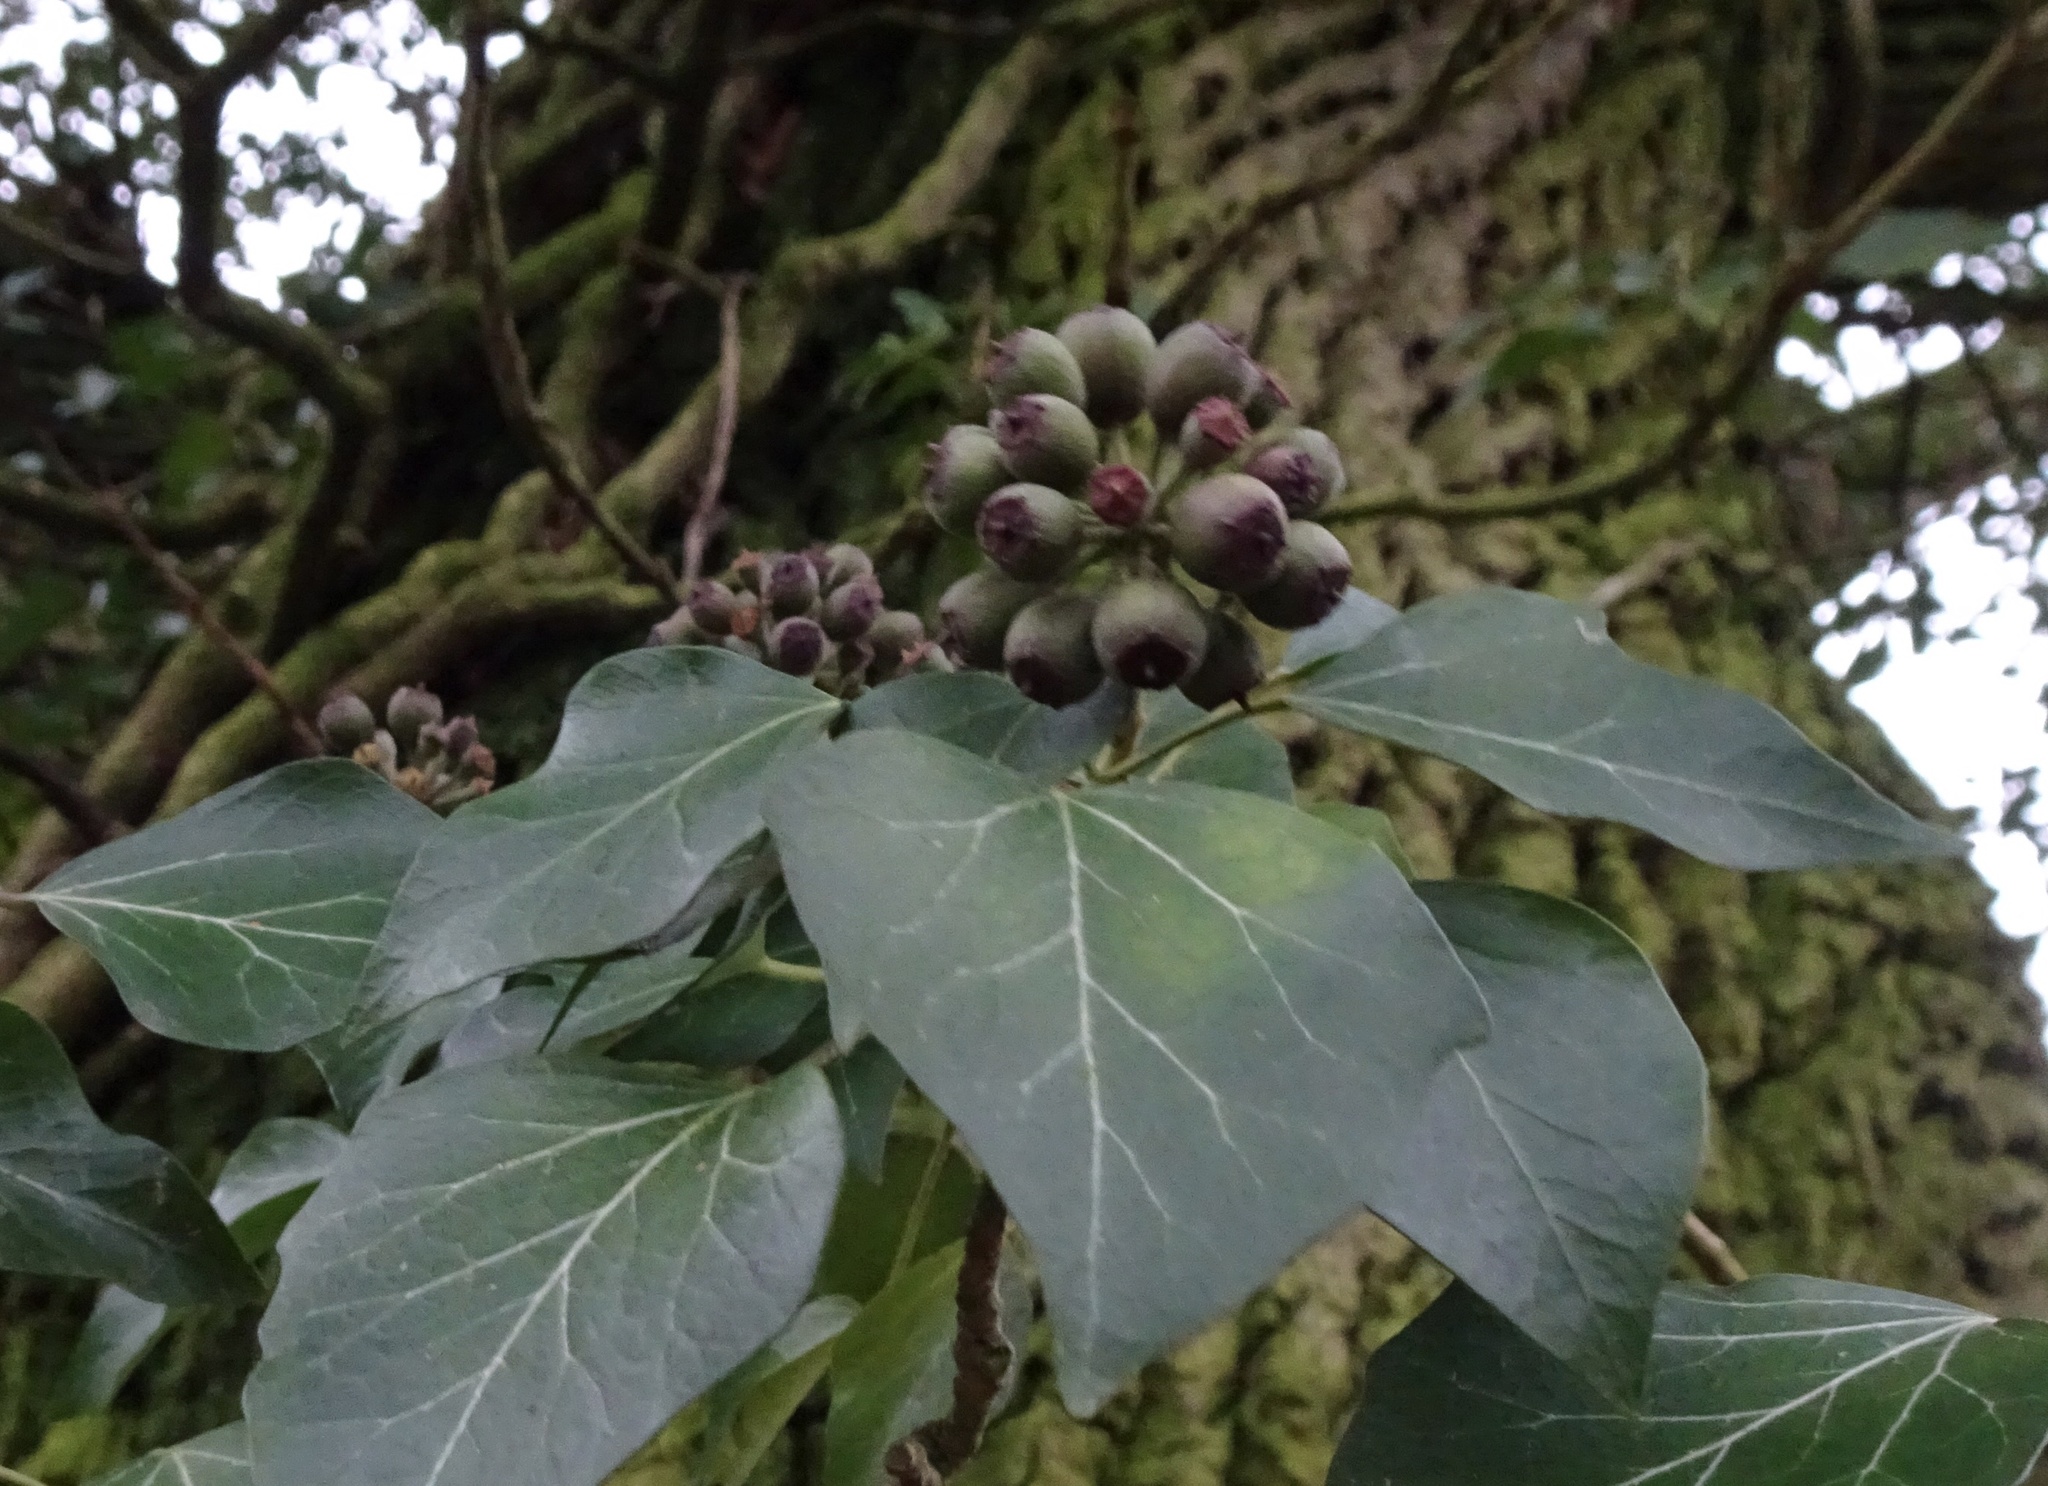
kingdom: Plantae
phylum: Tracheophyta
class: Magnoliopsida
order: Apiales
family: Araliaceae
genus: Hedera
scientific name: Hedera helix
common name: Ivy
